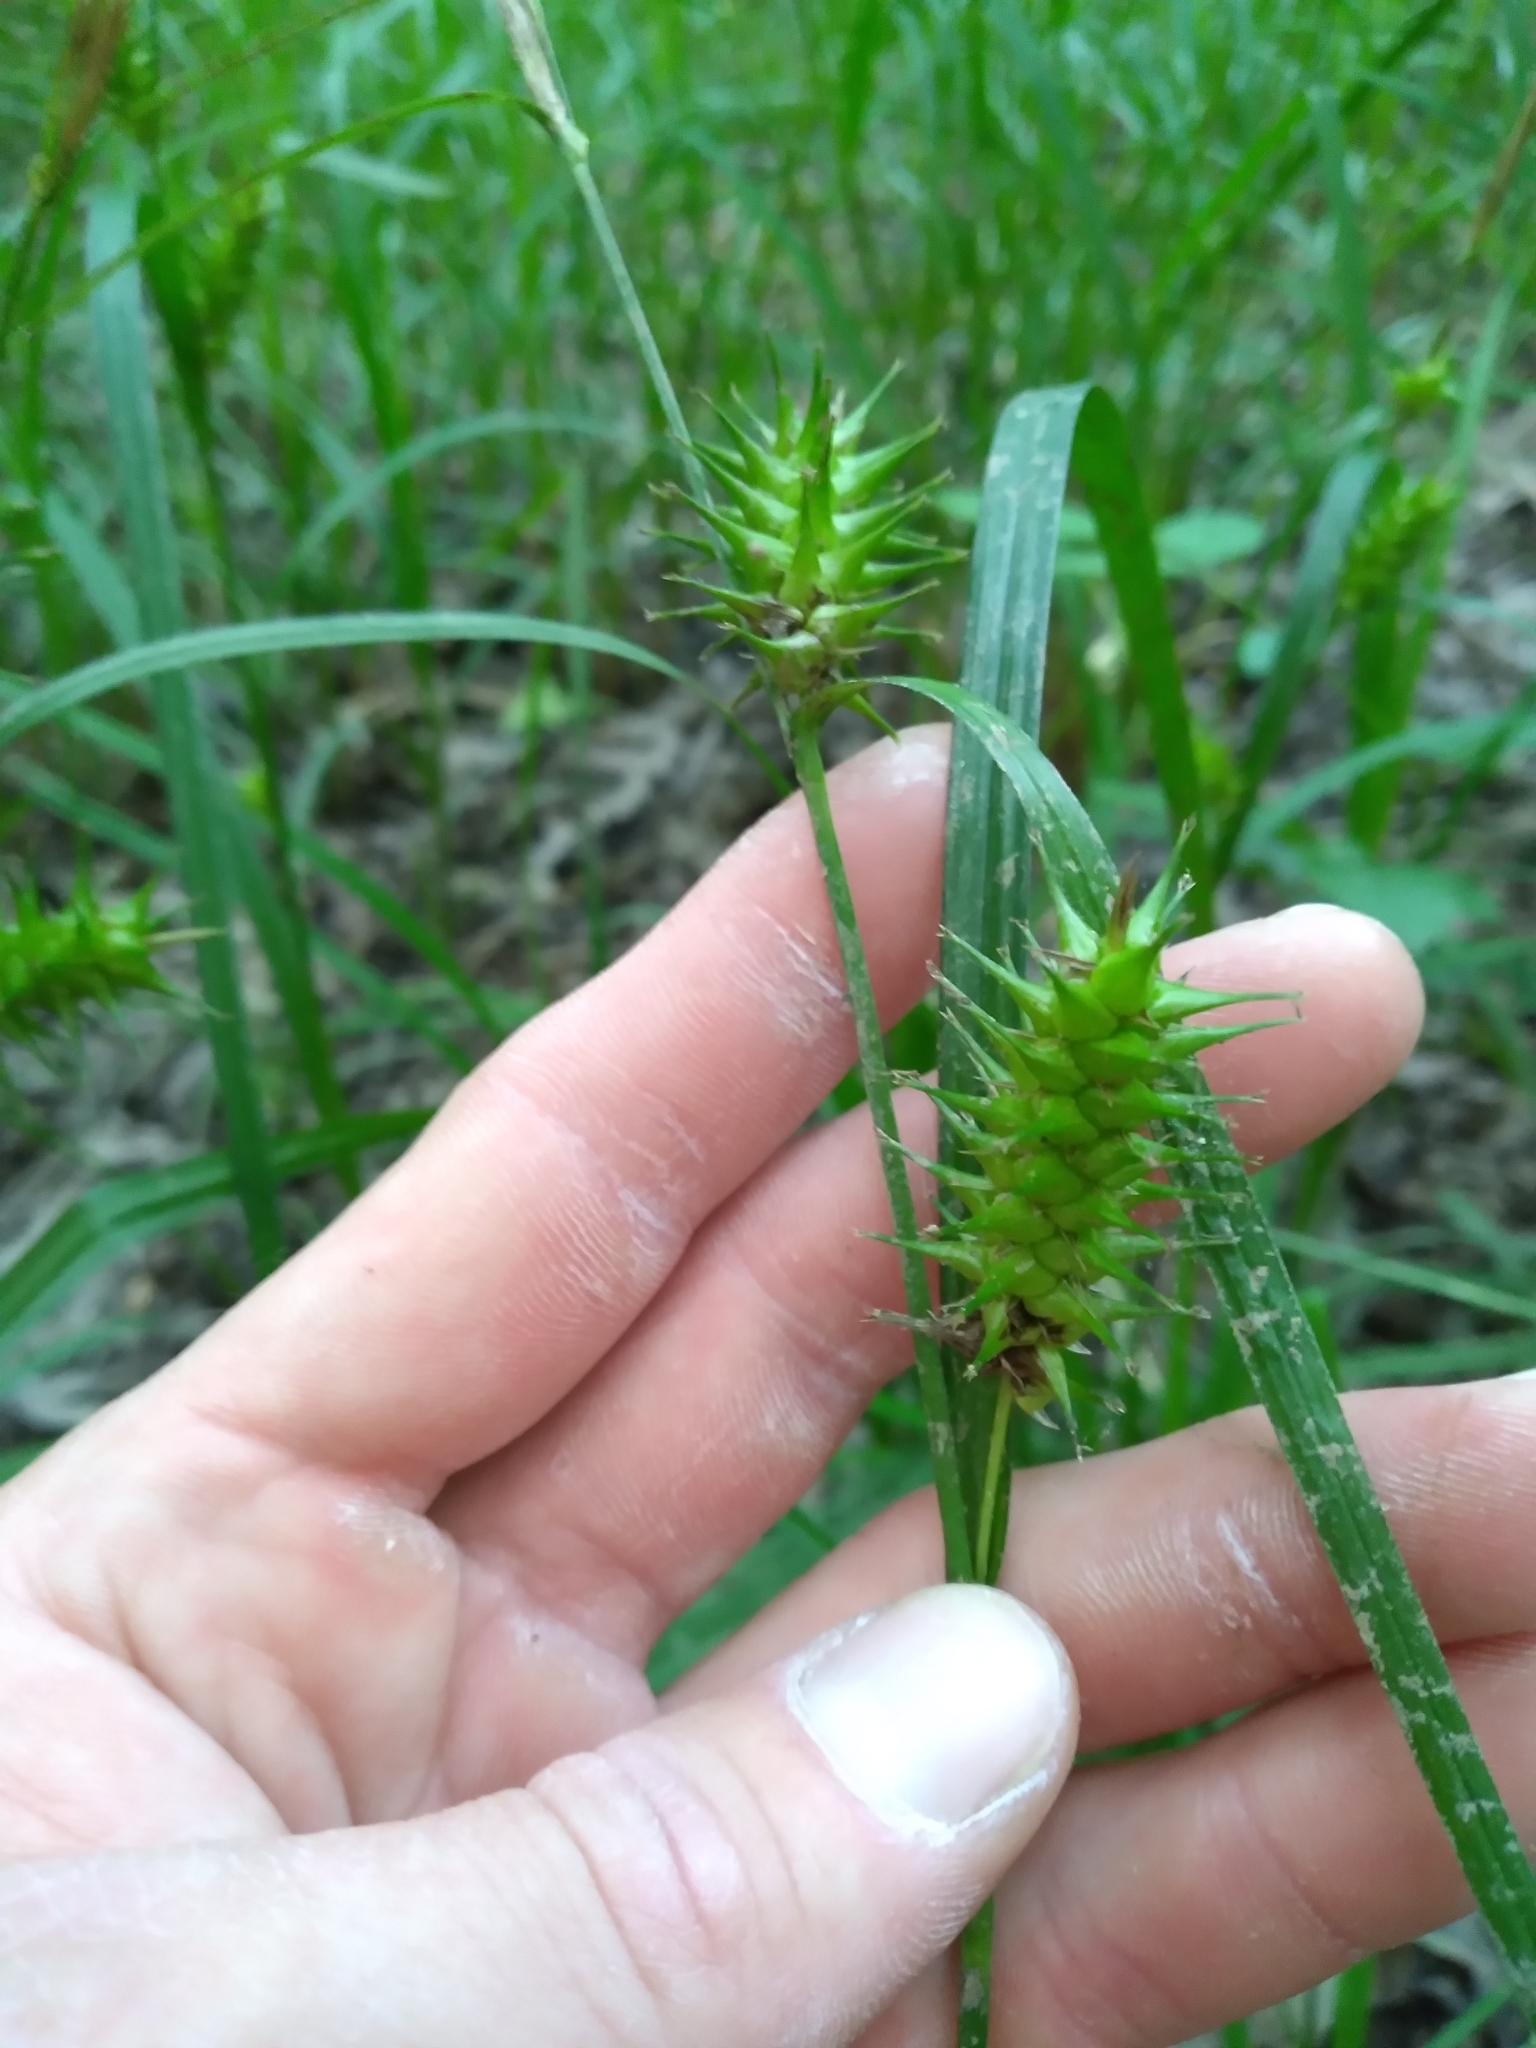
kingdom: Plantae
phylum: Tracheophyta
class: Liliopsida
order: Poales
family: Cyperaceae
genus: Carex
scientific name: Carex gigantea
